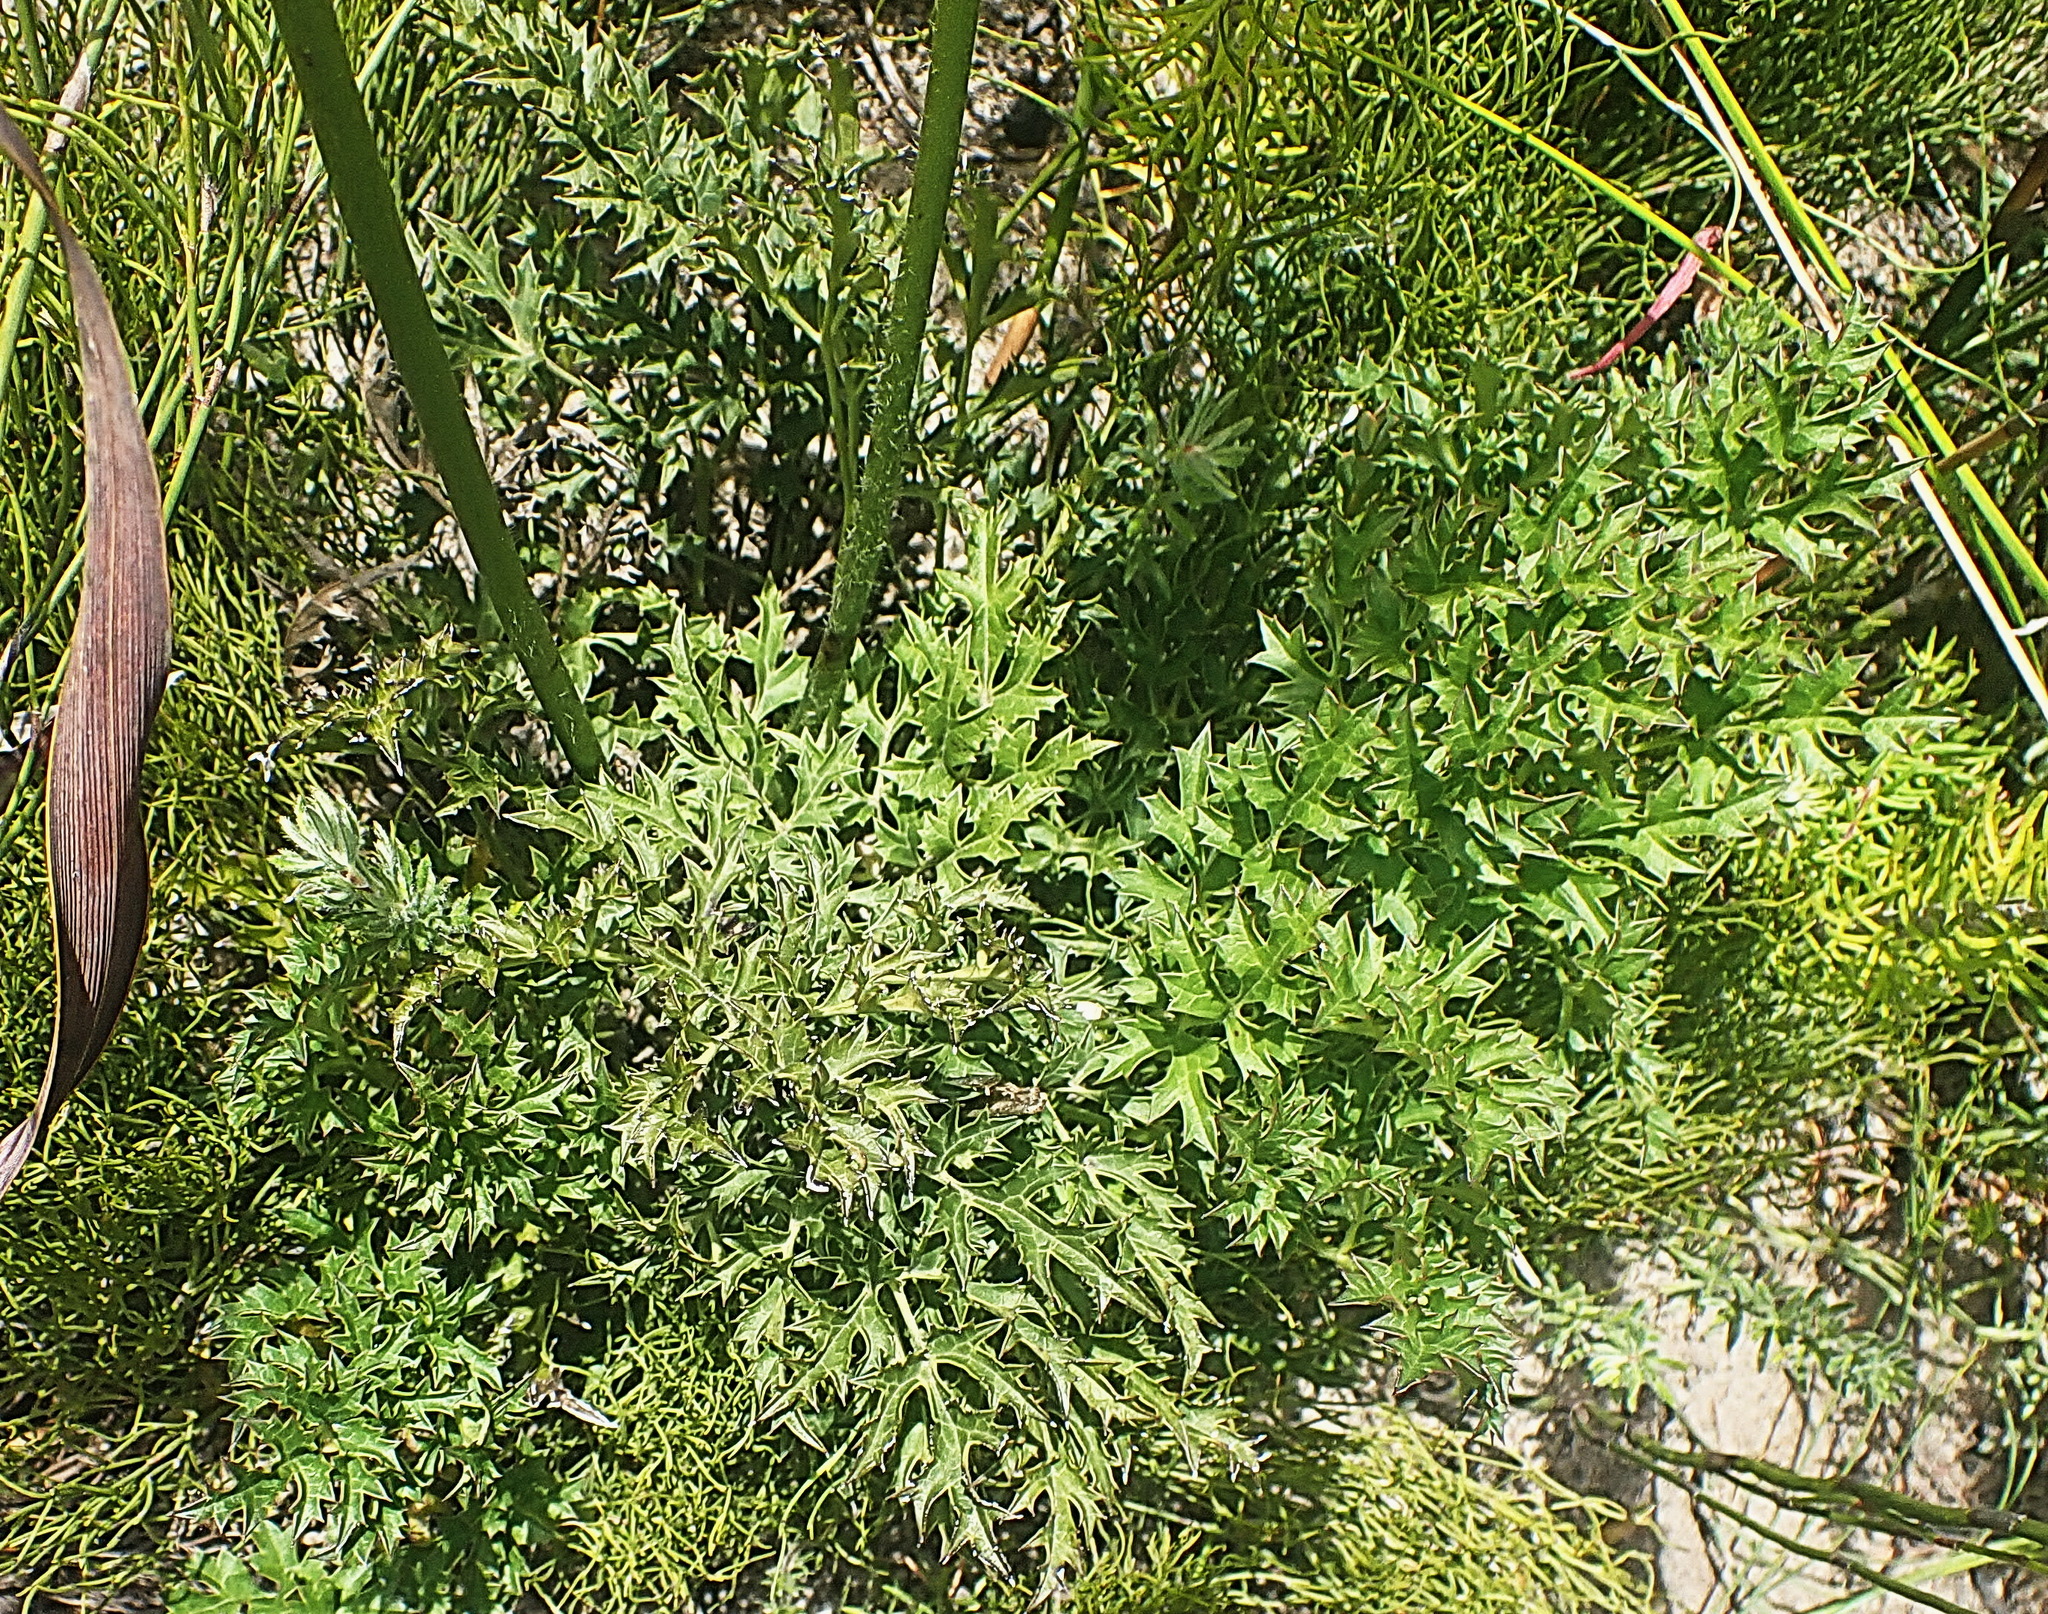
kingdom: Plantae
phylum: Tracheophyta
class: Magnoliopsida
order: Ranunculales
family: Ranunculaceae
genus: Knowltonia
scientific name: Knowltonia filia
